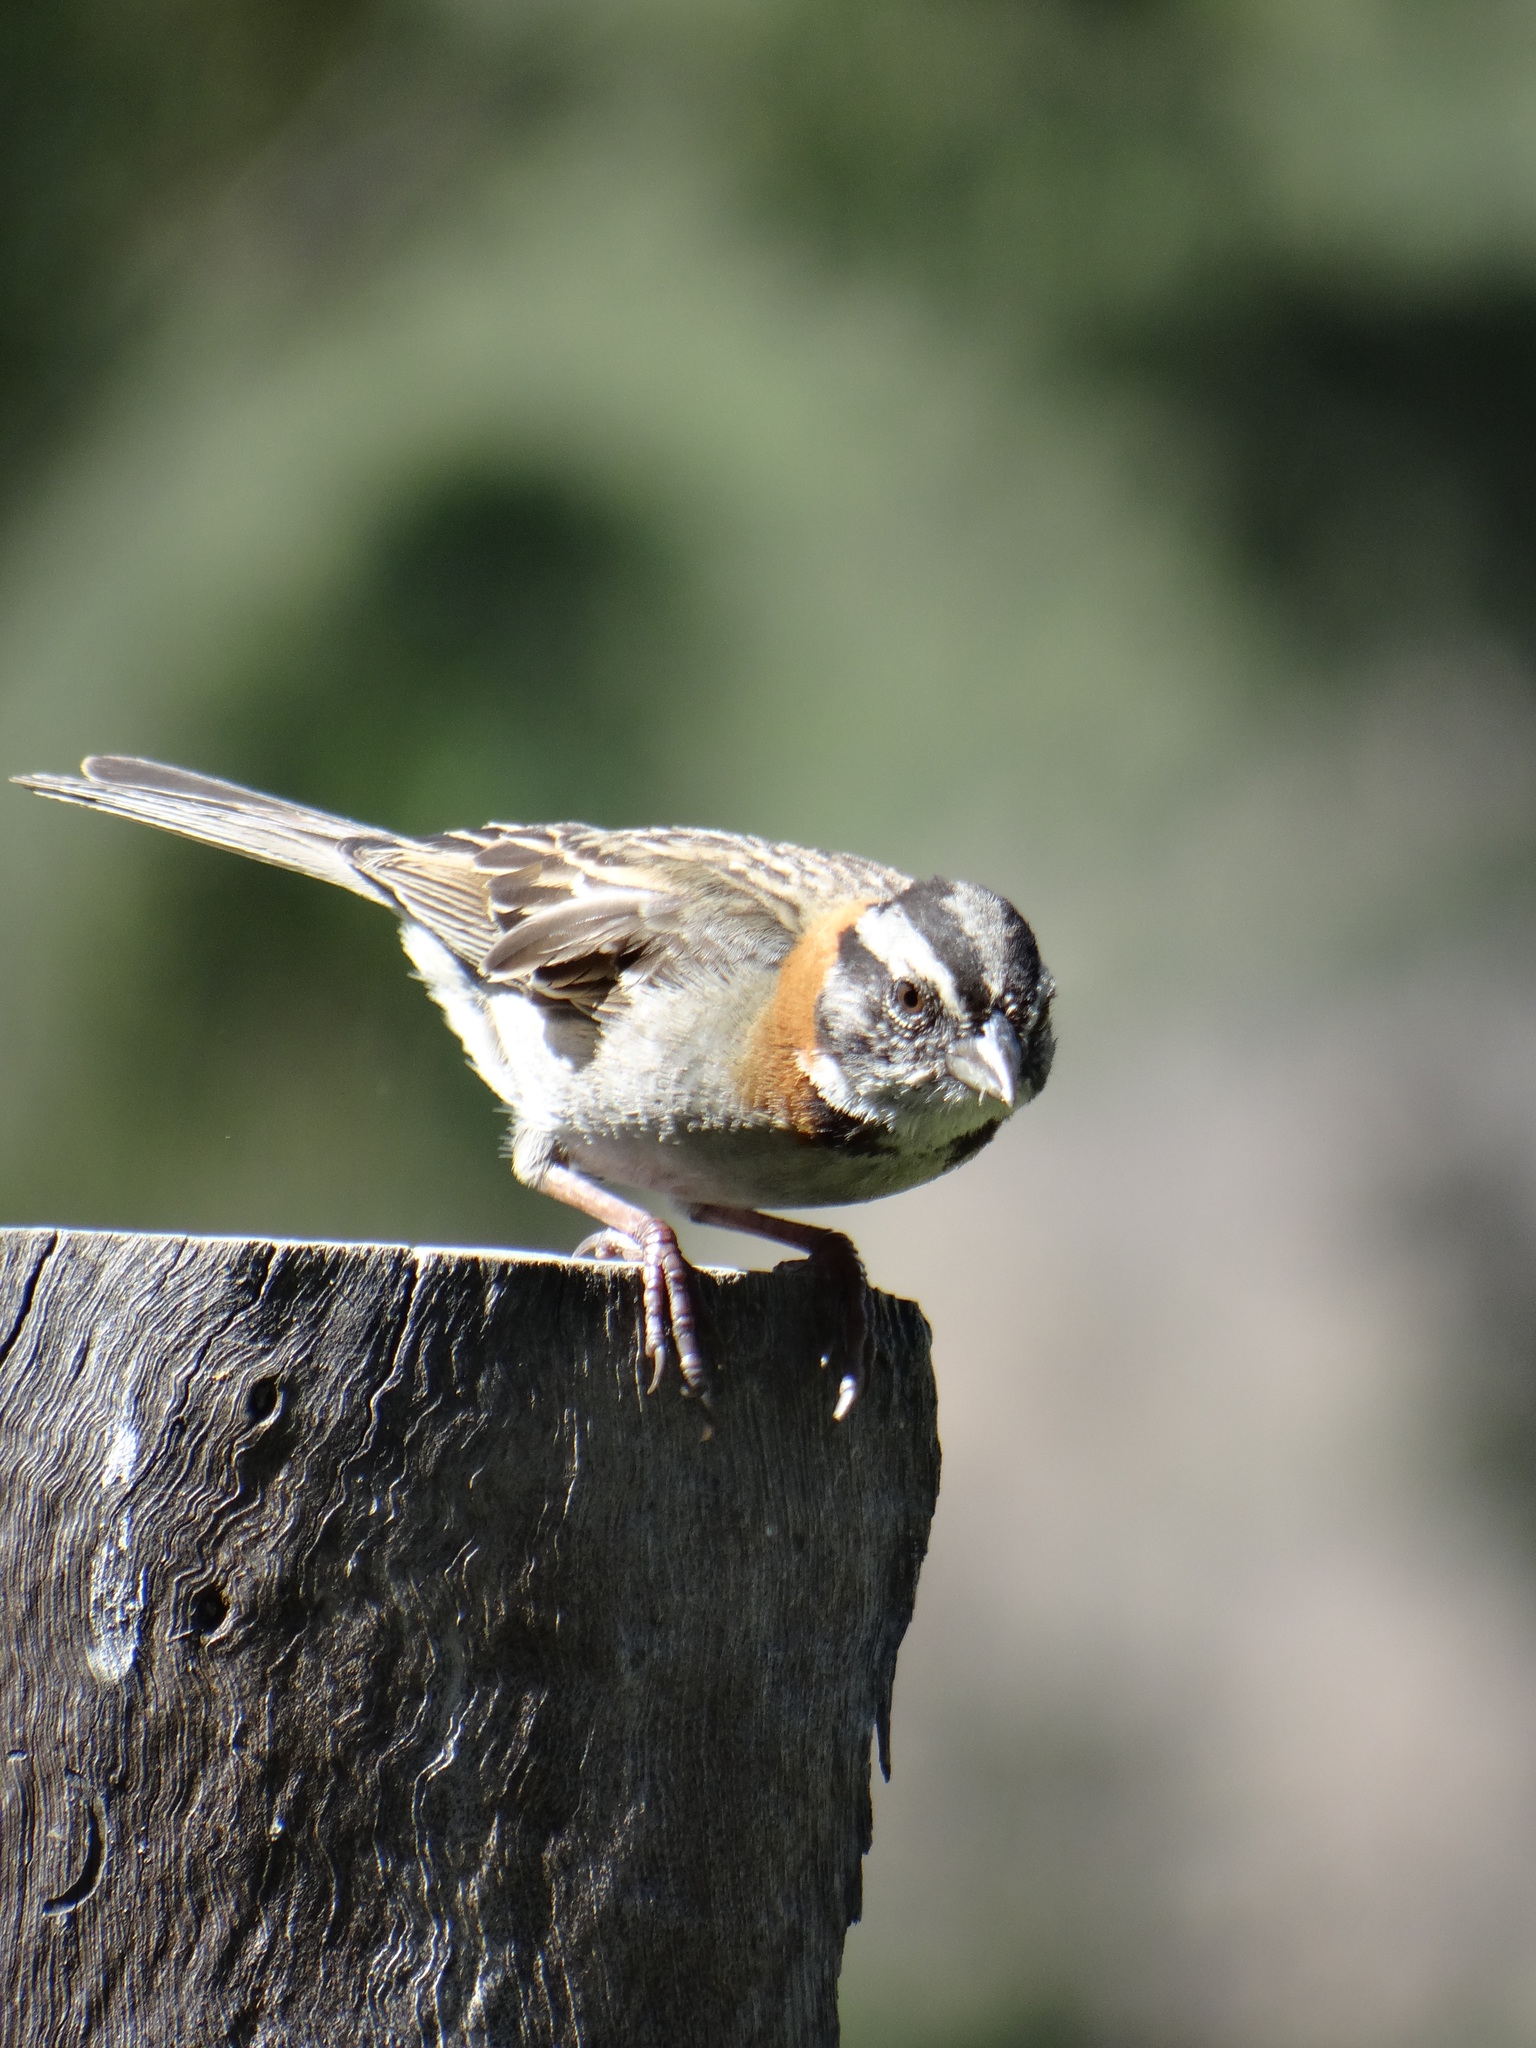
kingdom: Animalia
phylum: Chordata
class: Aves
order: Passeriformes
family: Passerellidae
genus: Zonotrichia
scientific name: Zonotrichia capensis
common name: Rufous-collared sparrow
